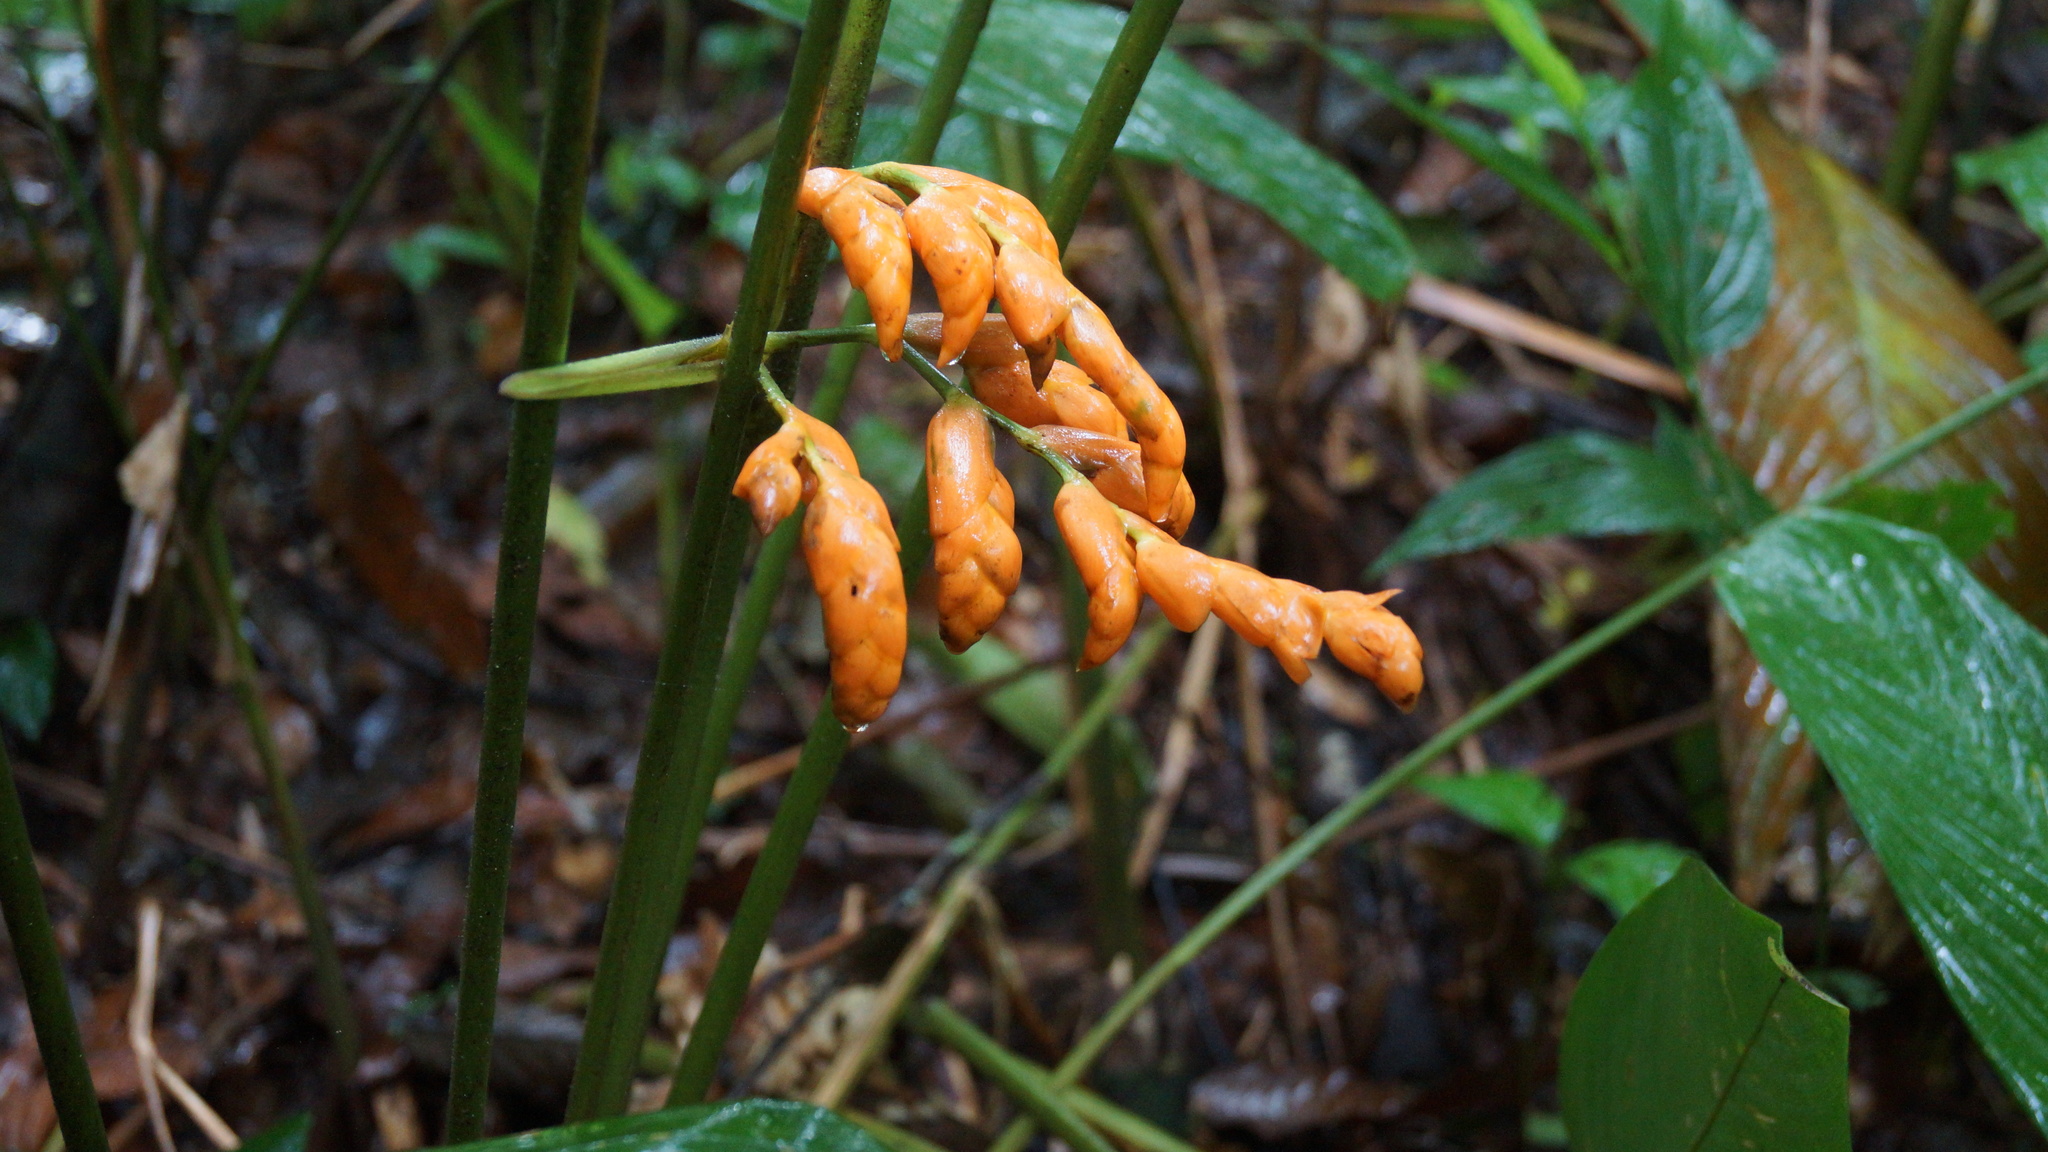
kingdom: Plantae
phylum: Tracheophyta
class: Liliopsida
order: Zingiberales
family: Marantaceae
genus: Stromanthe
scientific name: Stromanthe stromanthoides
